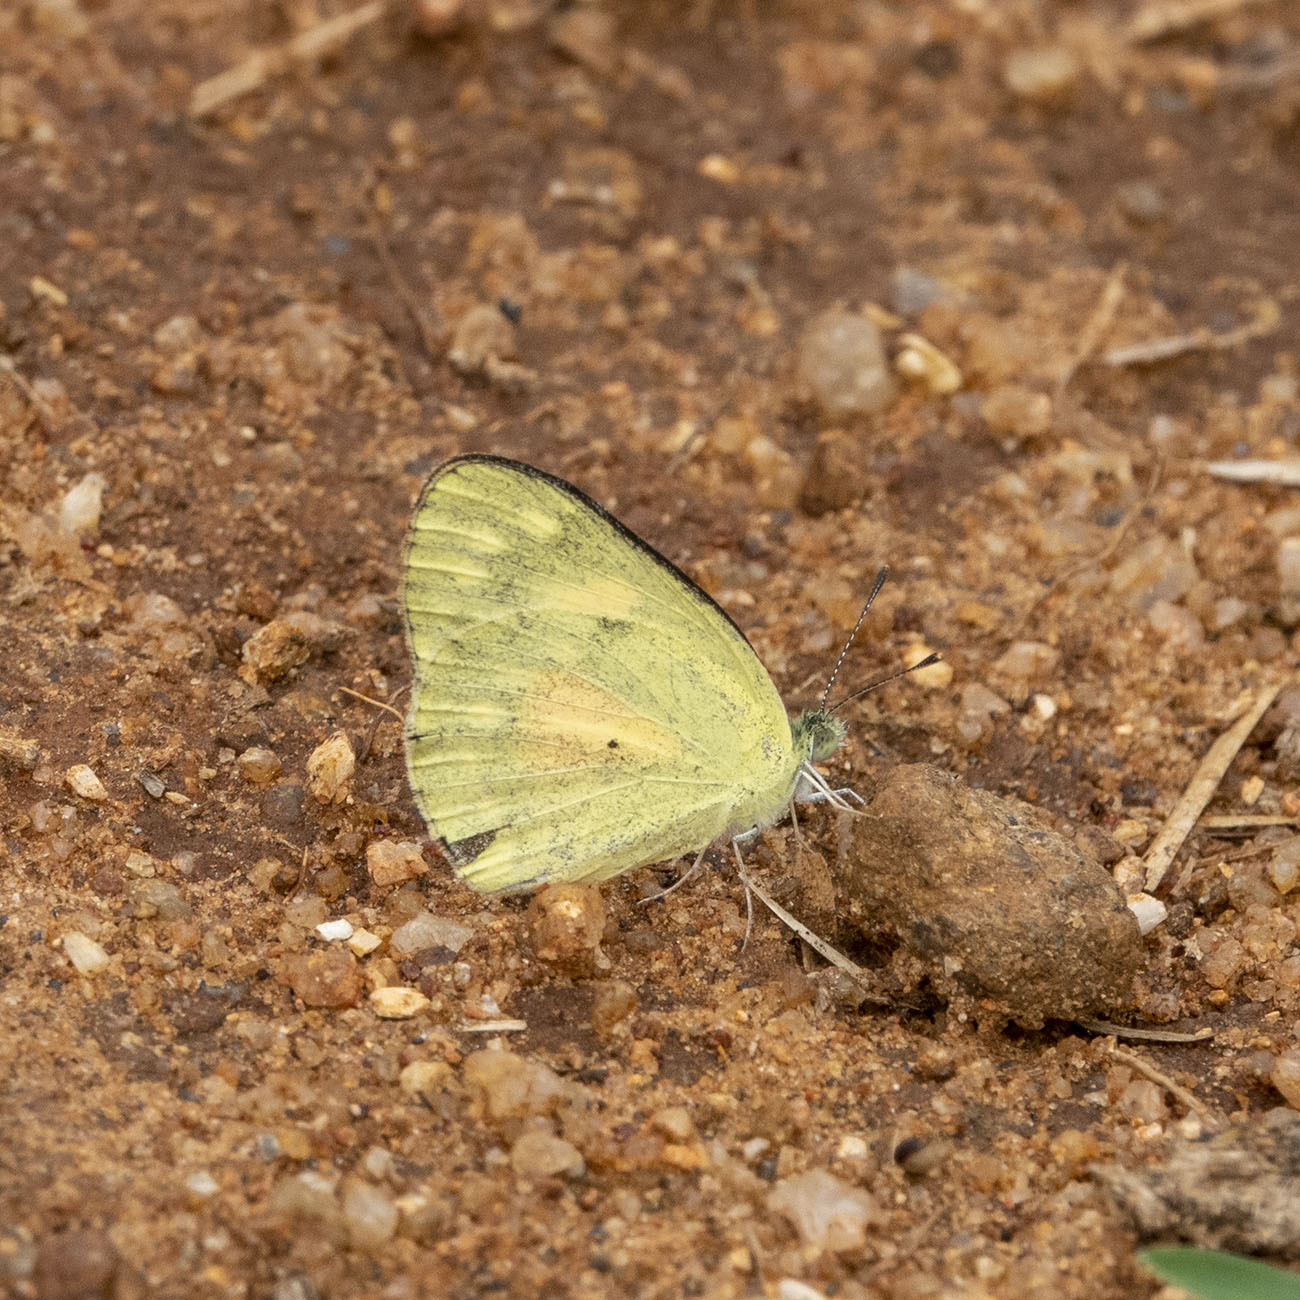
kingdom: Animalia
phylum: Arthropoda
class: Insecta
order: Lepidoptera
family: Pieridae
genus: Colotis
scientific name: Colotis amata
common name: Small salmon arab
